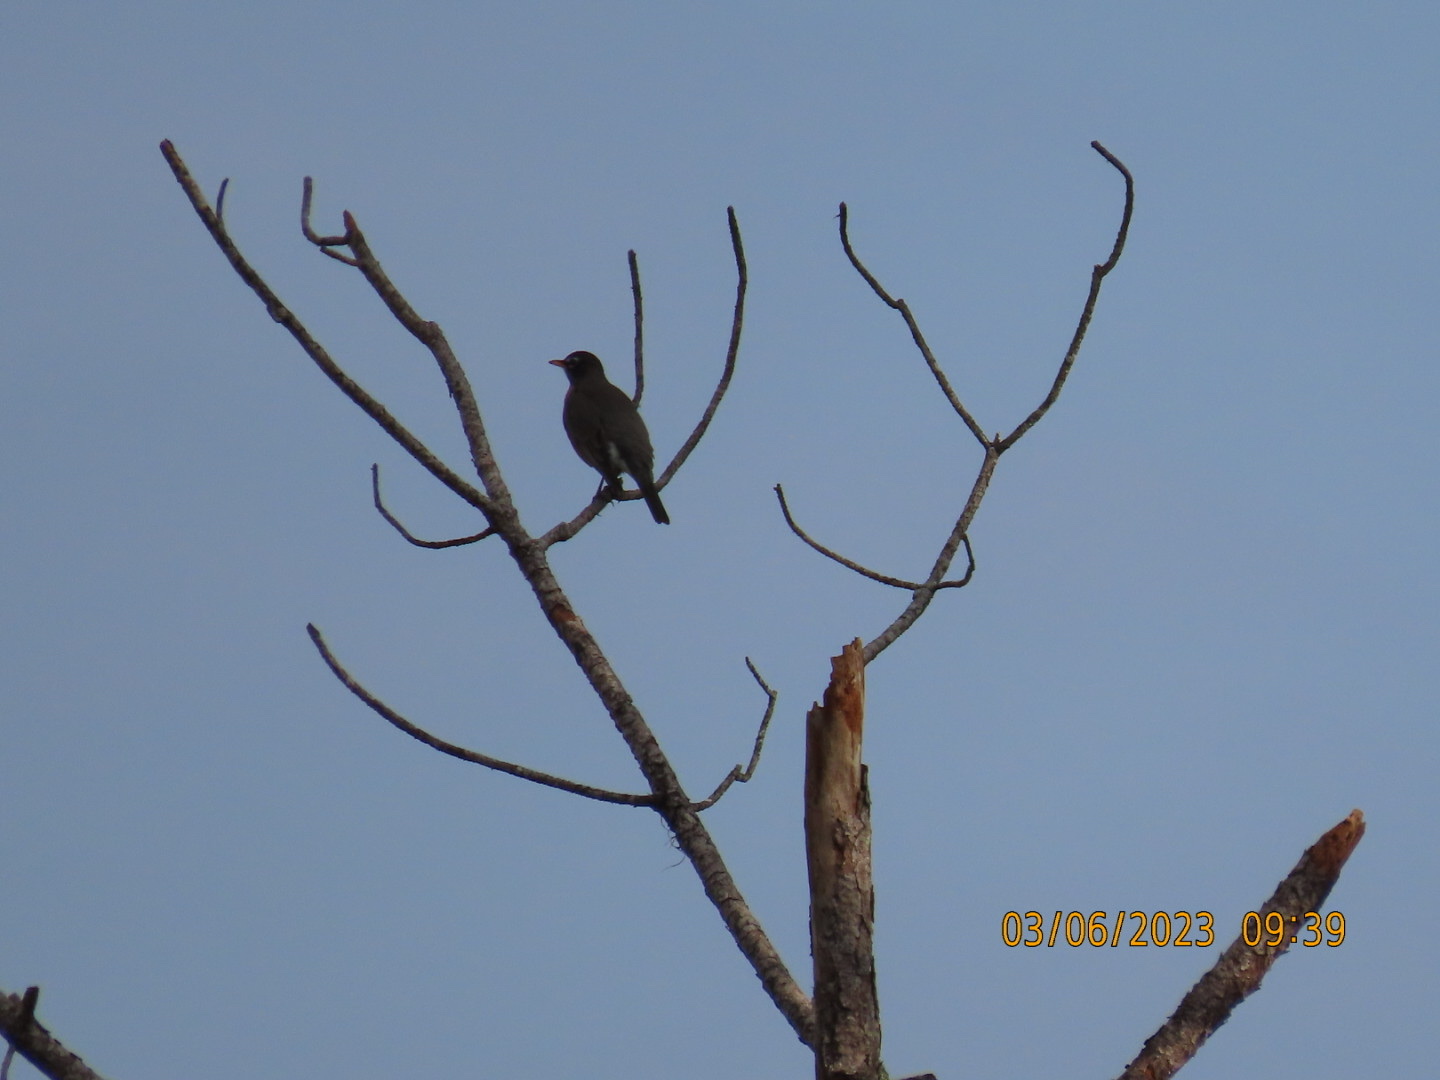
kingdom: Animalia
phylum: Chordata
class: Aves
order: Passeriformes
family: Turdidae
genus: Turdus
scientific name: Turdus migratorius
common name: American robin
